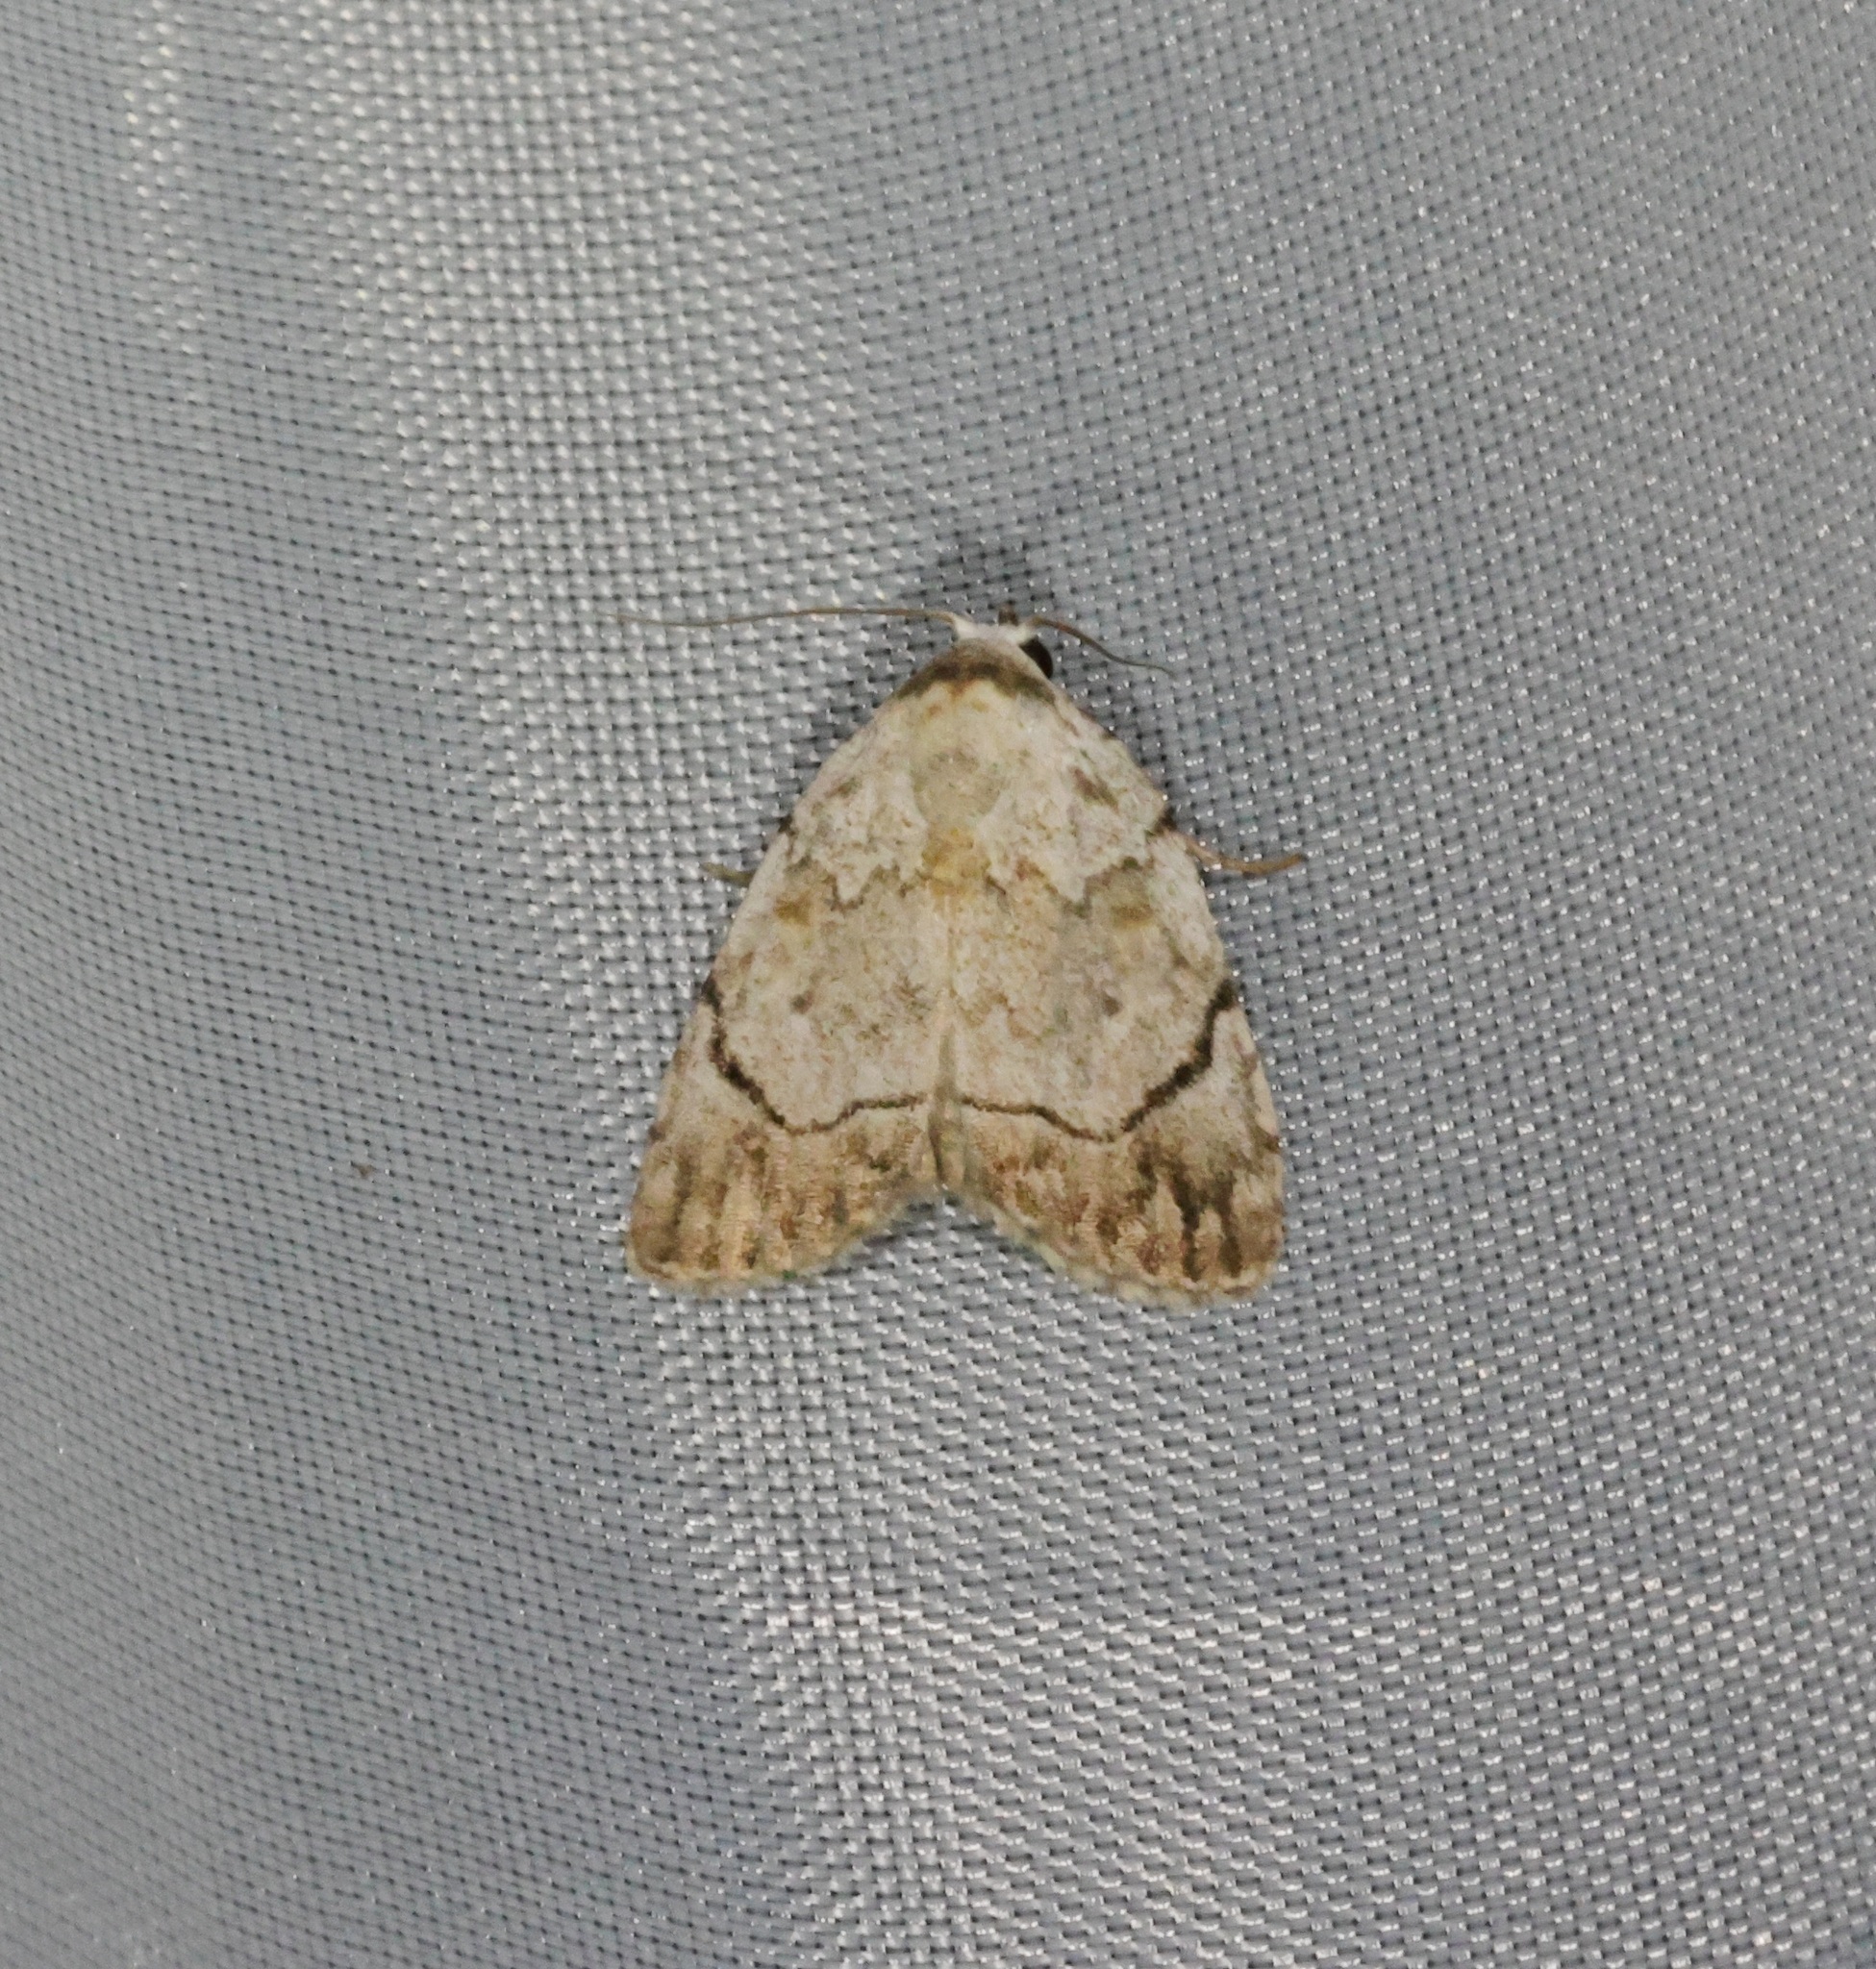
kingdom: Animalia
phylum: Arthropoda
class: Insecta
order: Lepidoptera
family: Nolidae
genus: Melanographia
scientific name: Melanographia flexilineata
